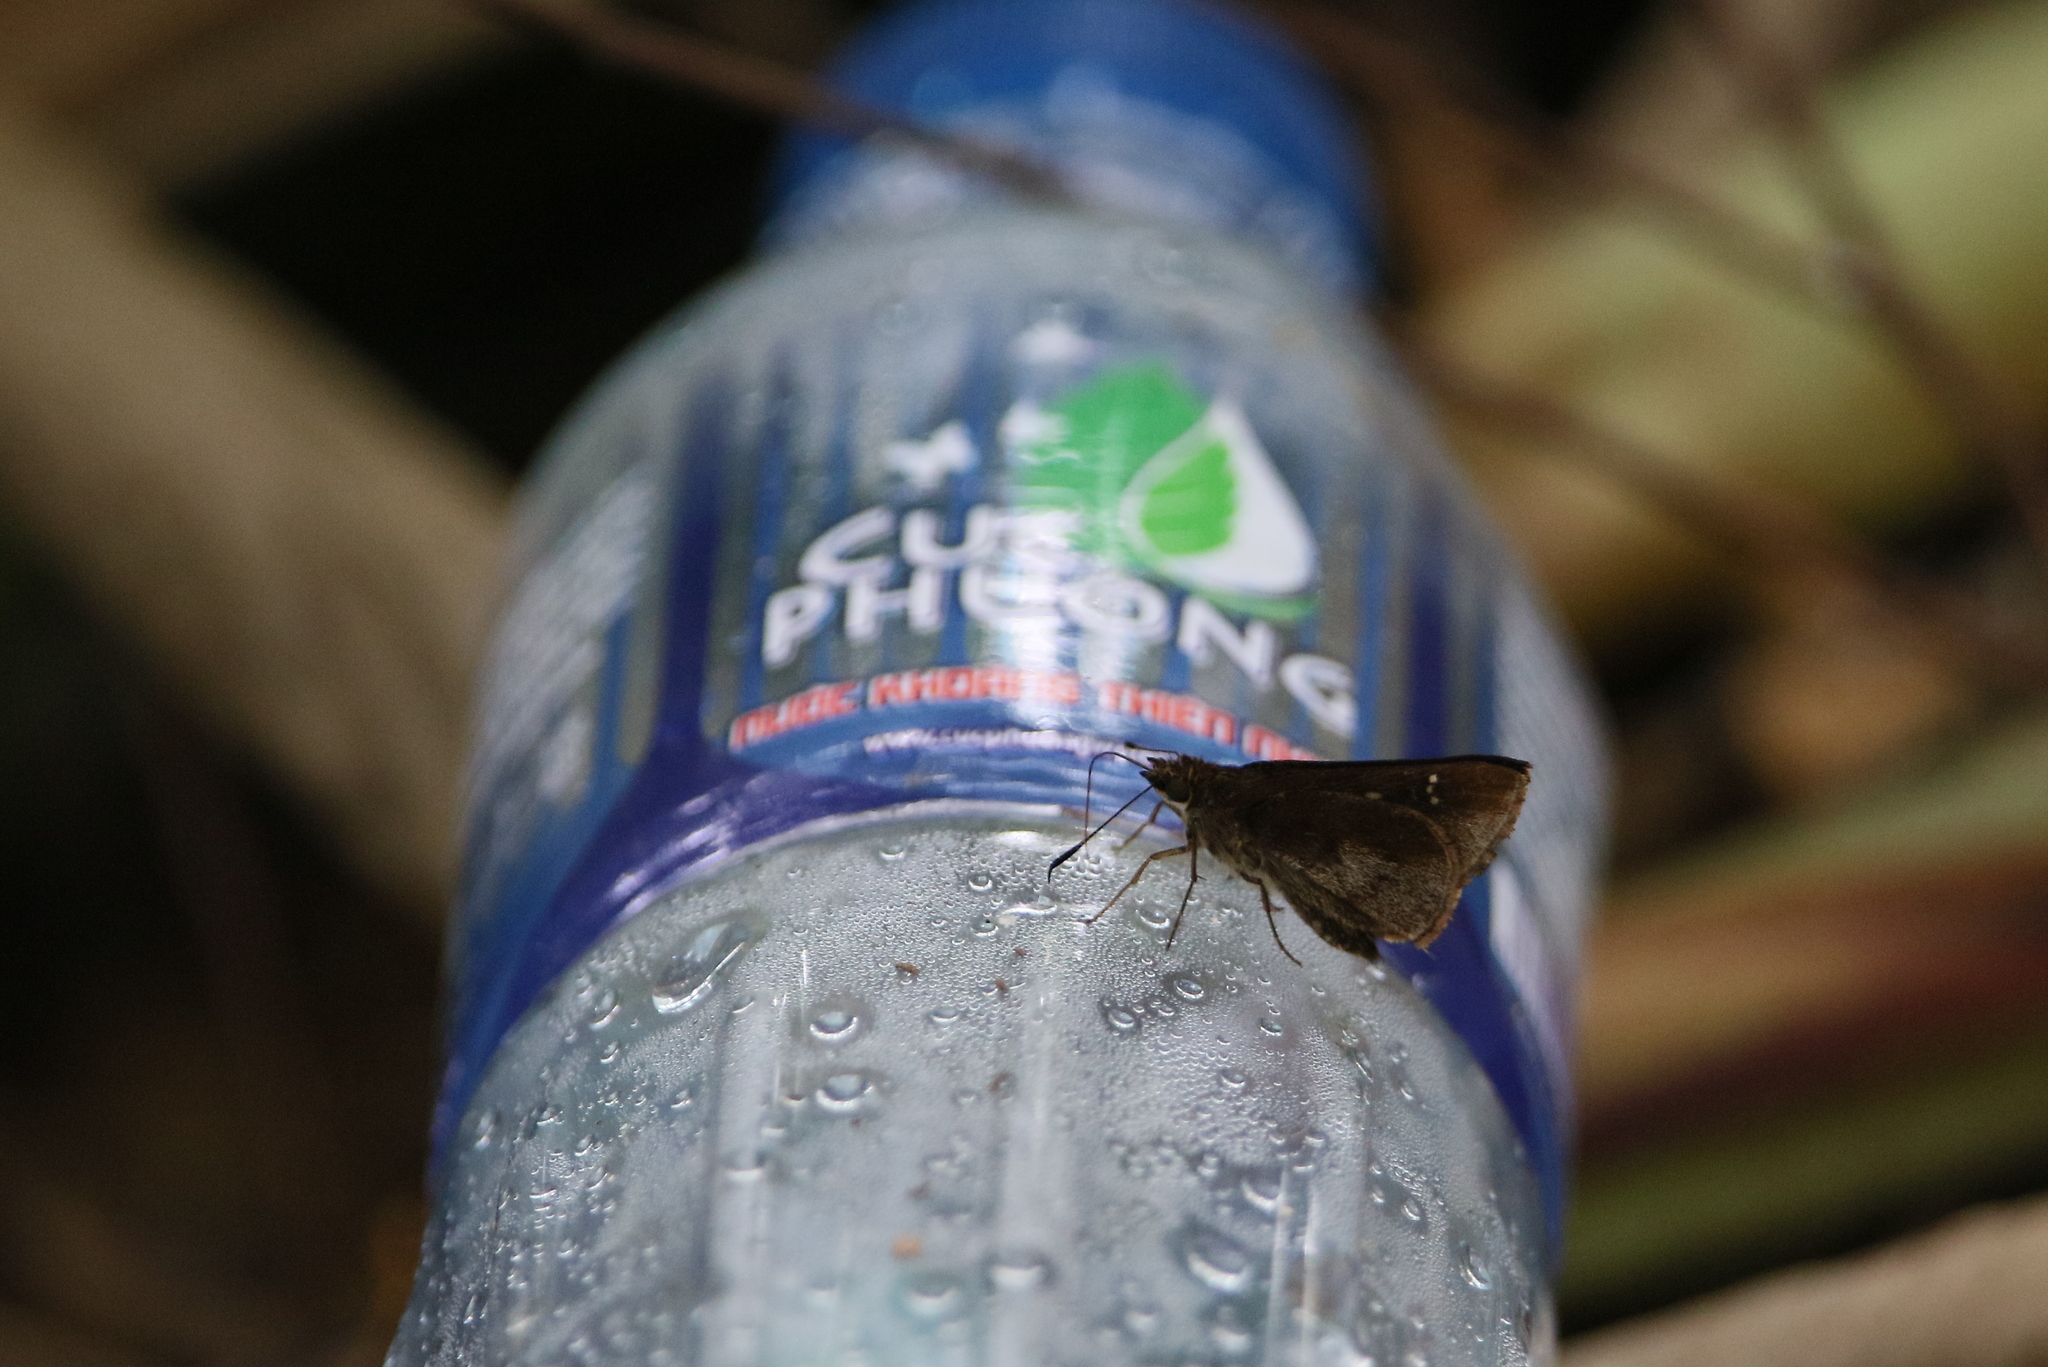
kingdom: Animalia
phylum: Arthropoda
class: Insecta
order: Lepidoptera
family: Hesperiidae
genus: Astictopterus
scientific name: Astictopterus jama
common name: Forest hopper
